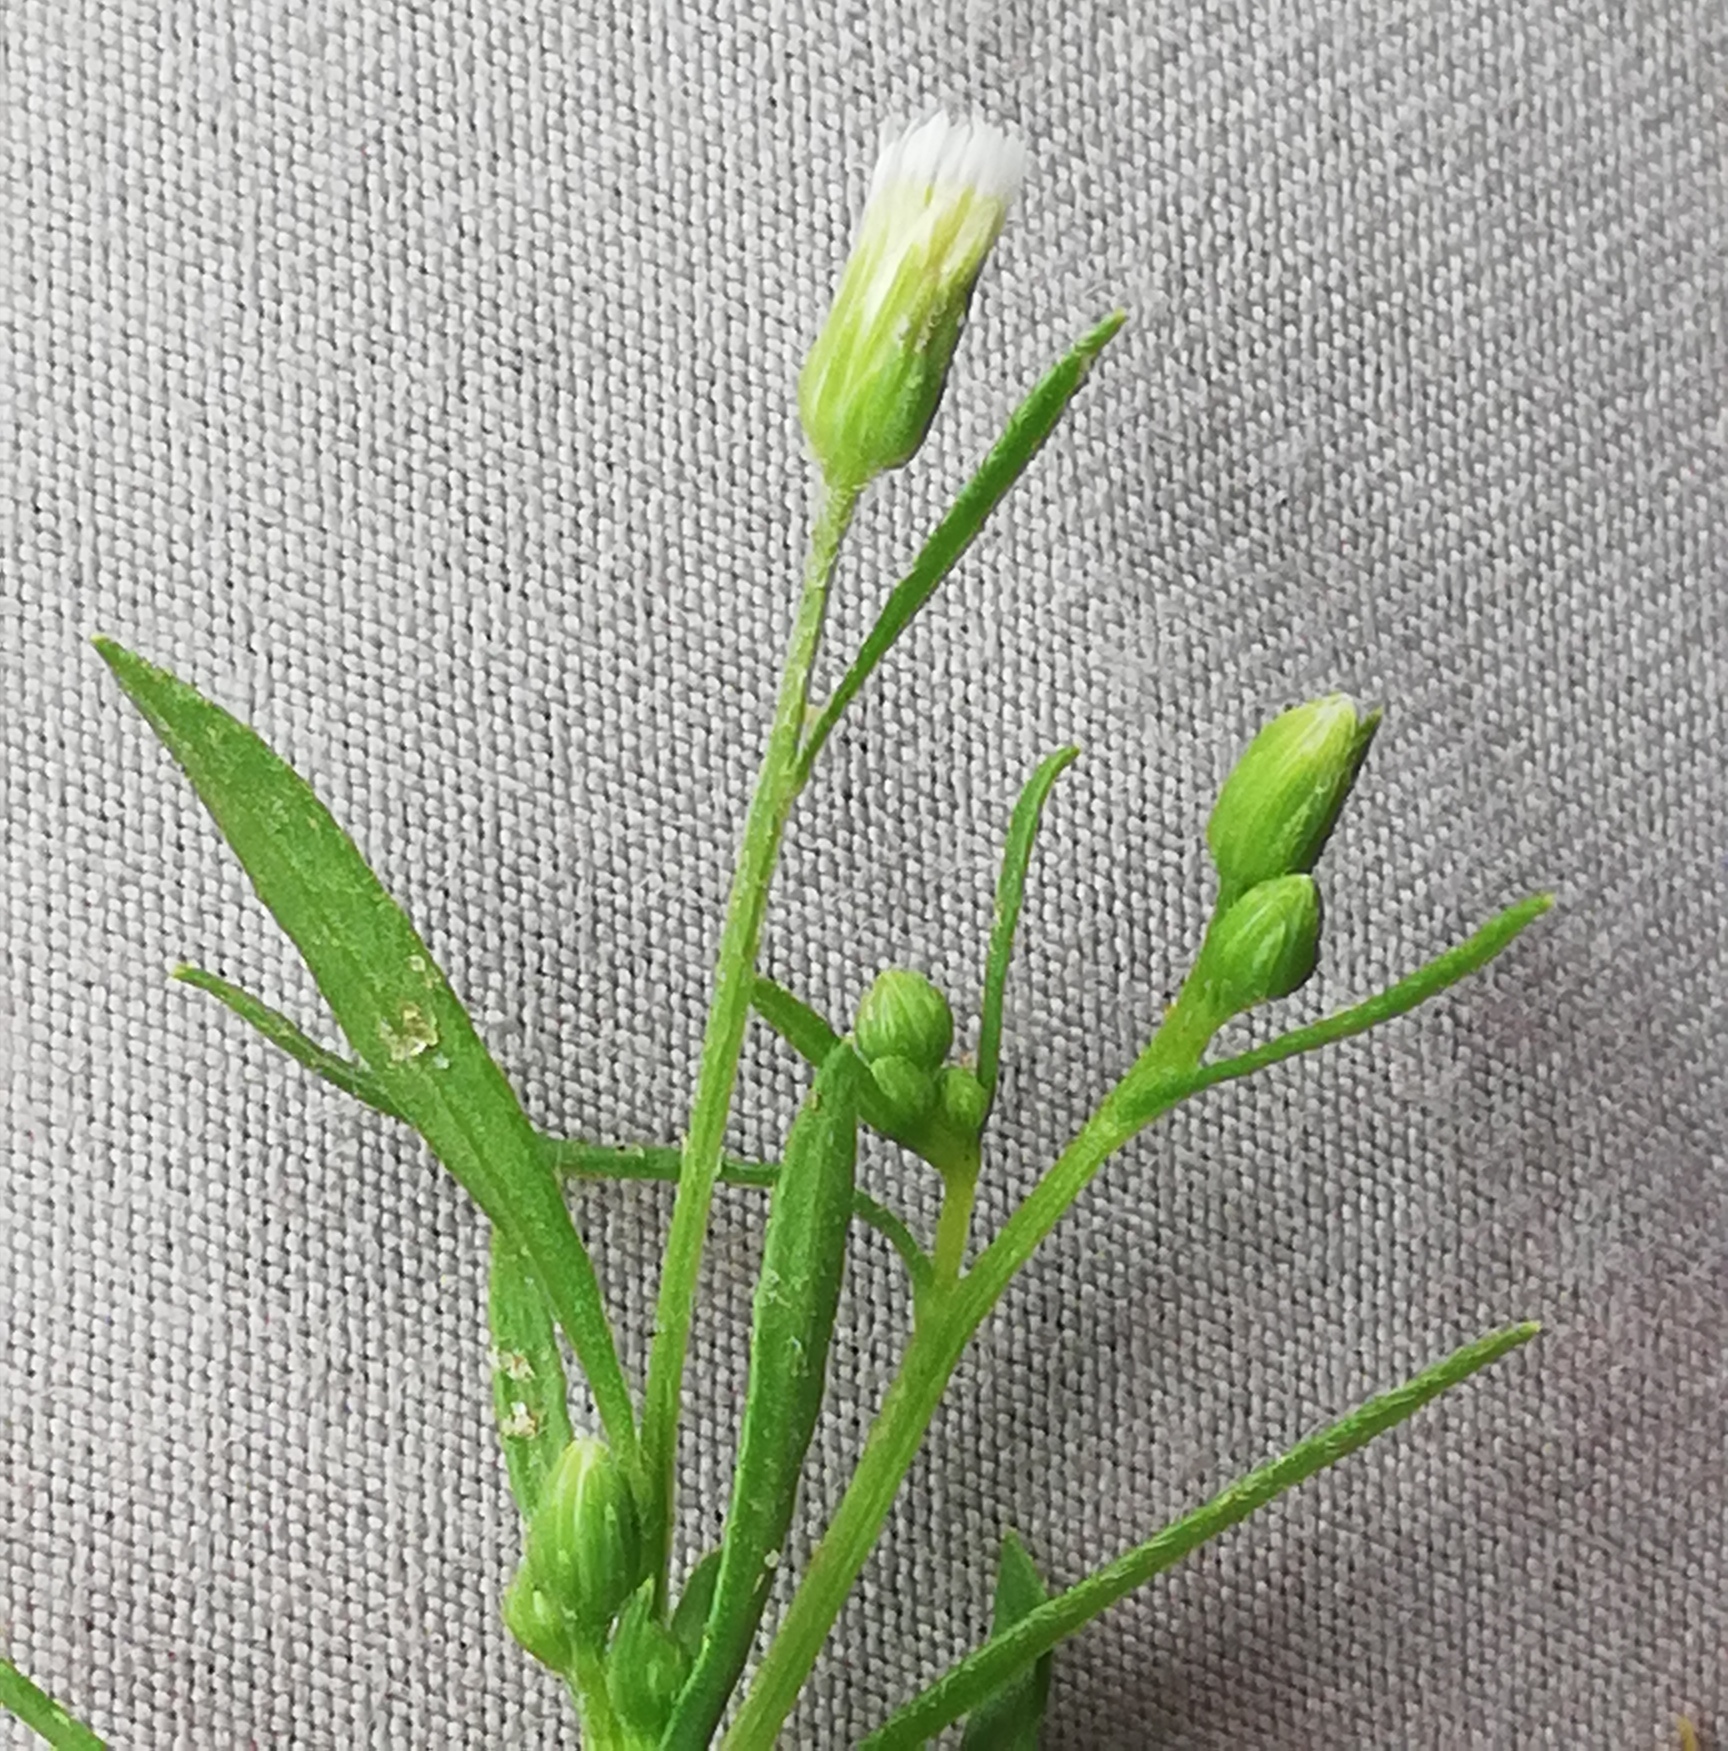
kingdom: Plantae
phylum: Tracheophyta
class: Magnoliopsida
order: Asterales
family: Asteraceae
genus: Erigeron
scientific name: Erigeron canadensis
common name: Canadian fleabane
